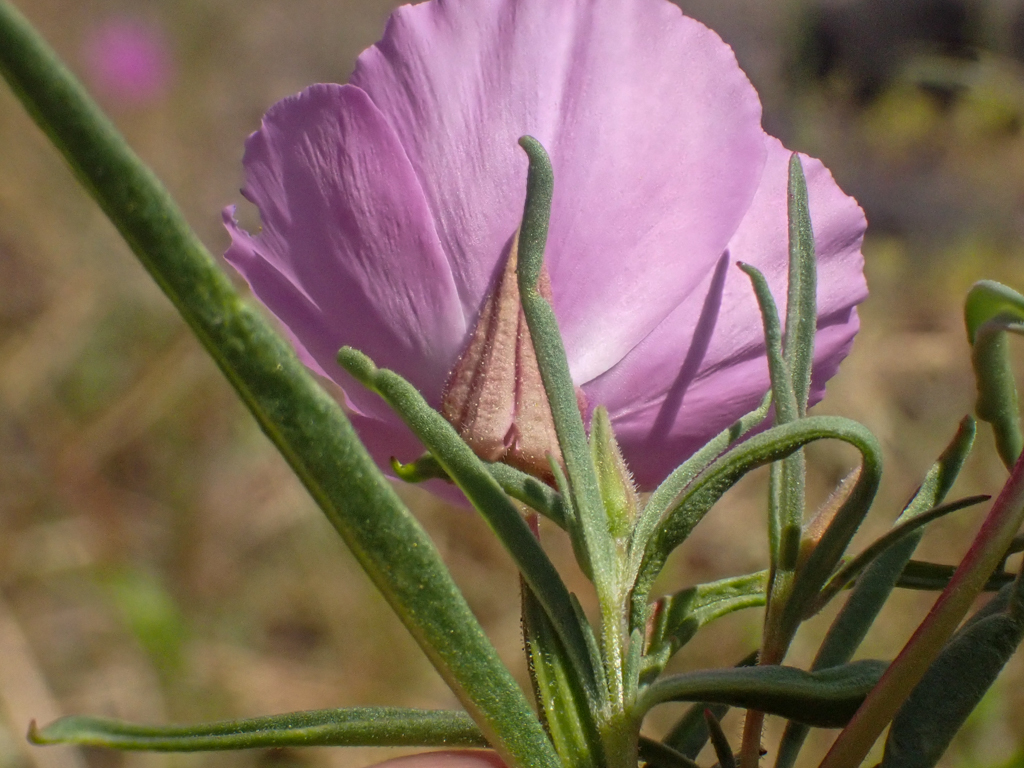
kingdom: Plantae
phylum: Tracheophyta
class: Magnoliopsida
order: Myrtales
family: Onagraceae
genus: Clarkia
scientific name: Clarkia arcuata
